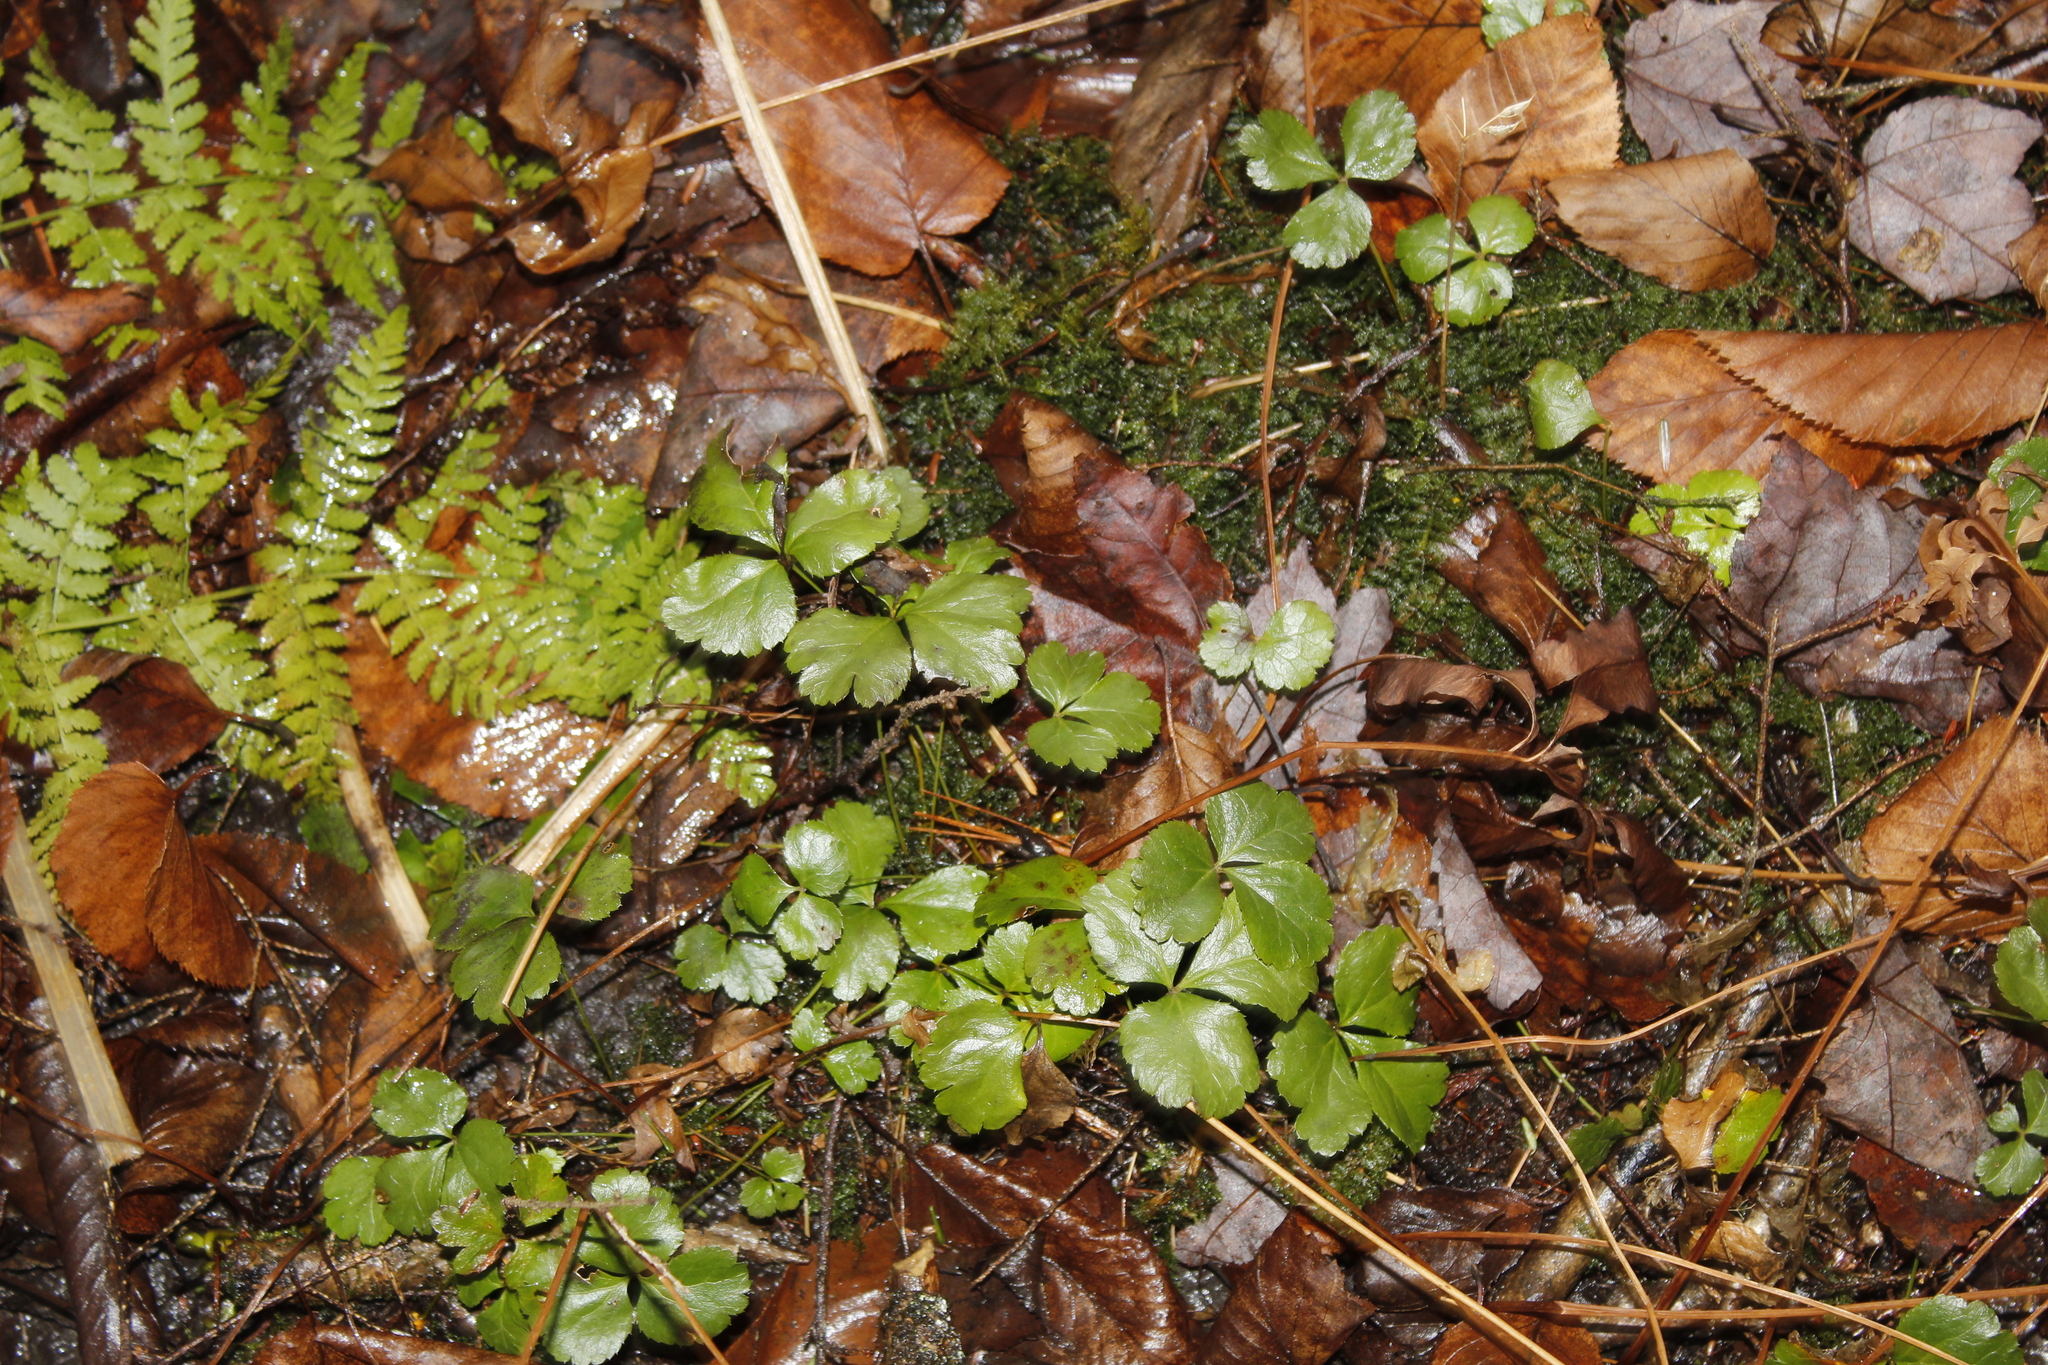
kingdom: Plantae
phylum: Tracheophyta
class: Magnoliopsida
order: Ranunculales
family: Ranunculaceae
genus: Coptis
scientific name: Coptis trifolia
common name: Canker-root
